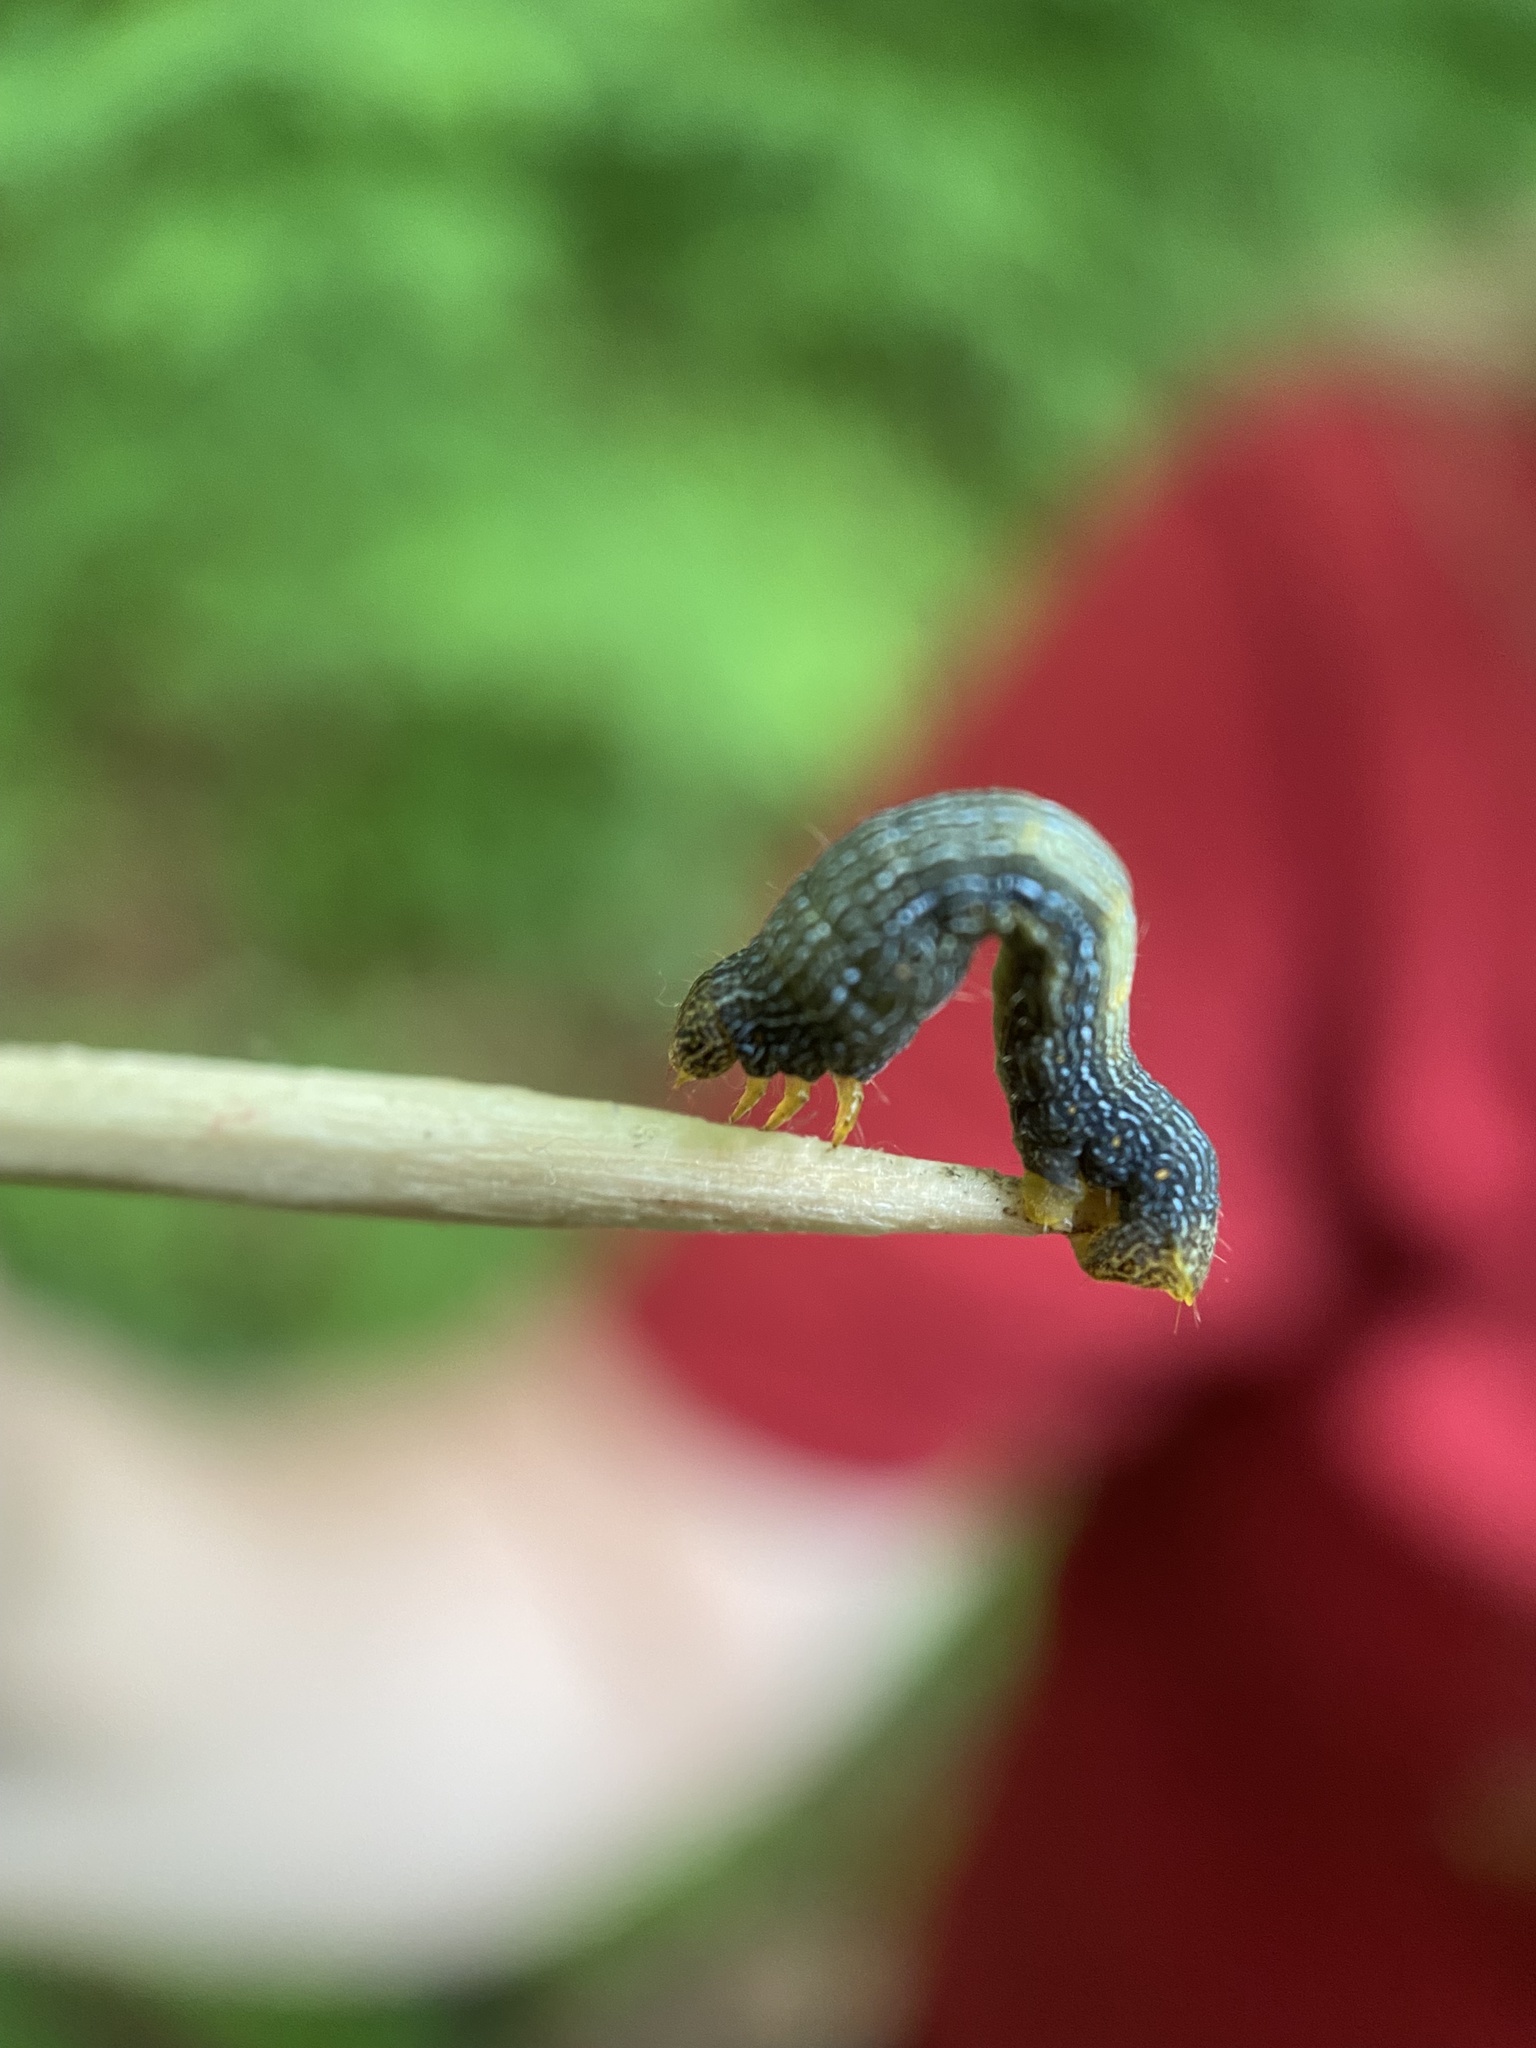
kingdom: Animalia
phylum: Arthropoda
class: Insecta
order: Lepidoptera
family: Geometridae
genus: Epimecis
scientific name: Epimecis hortaria
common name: Tulip-tree beauty
